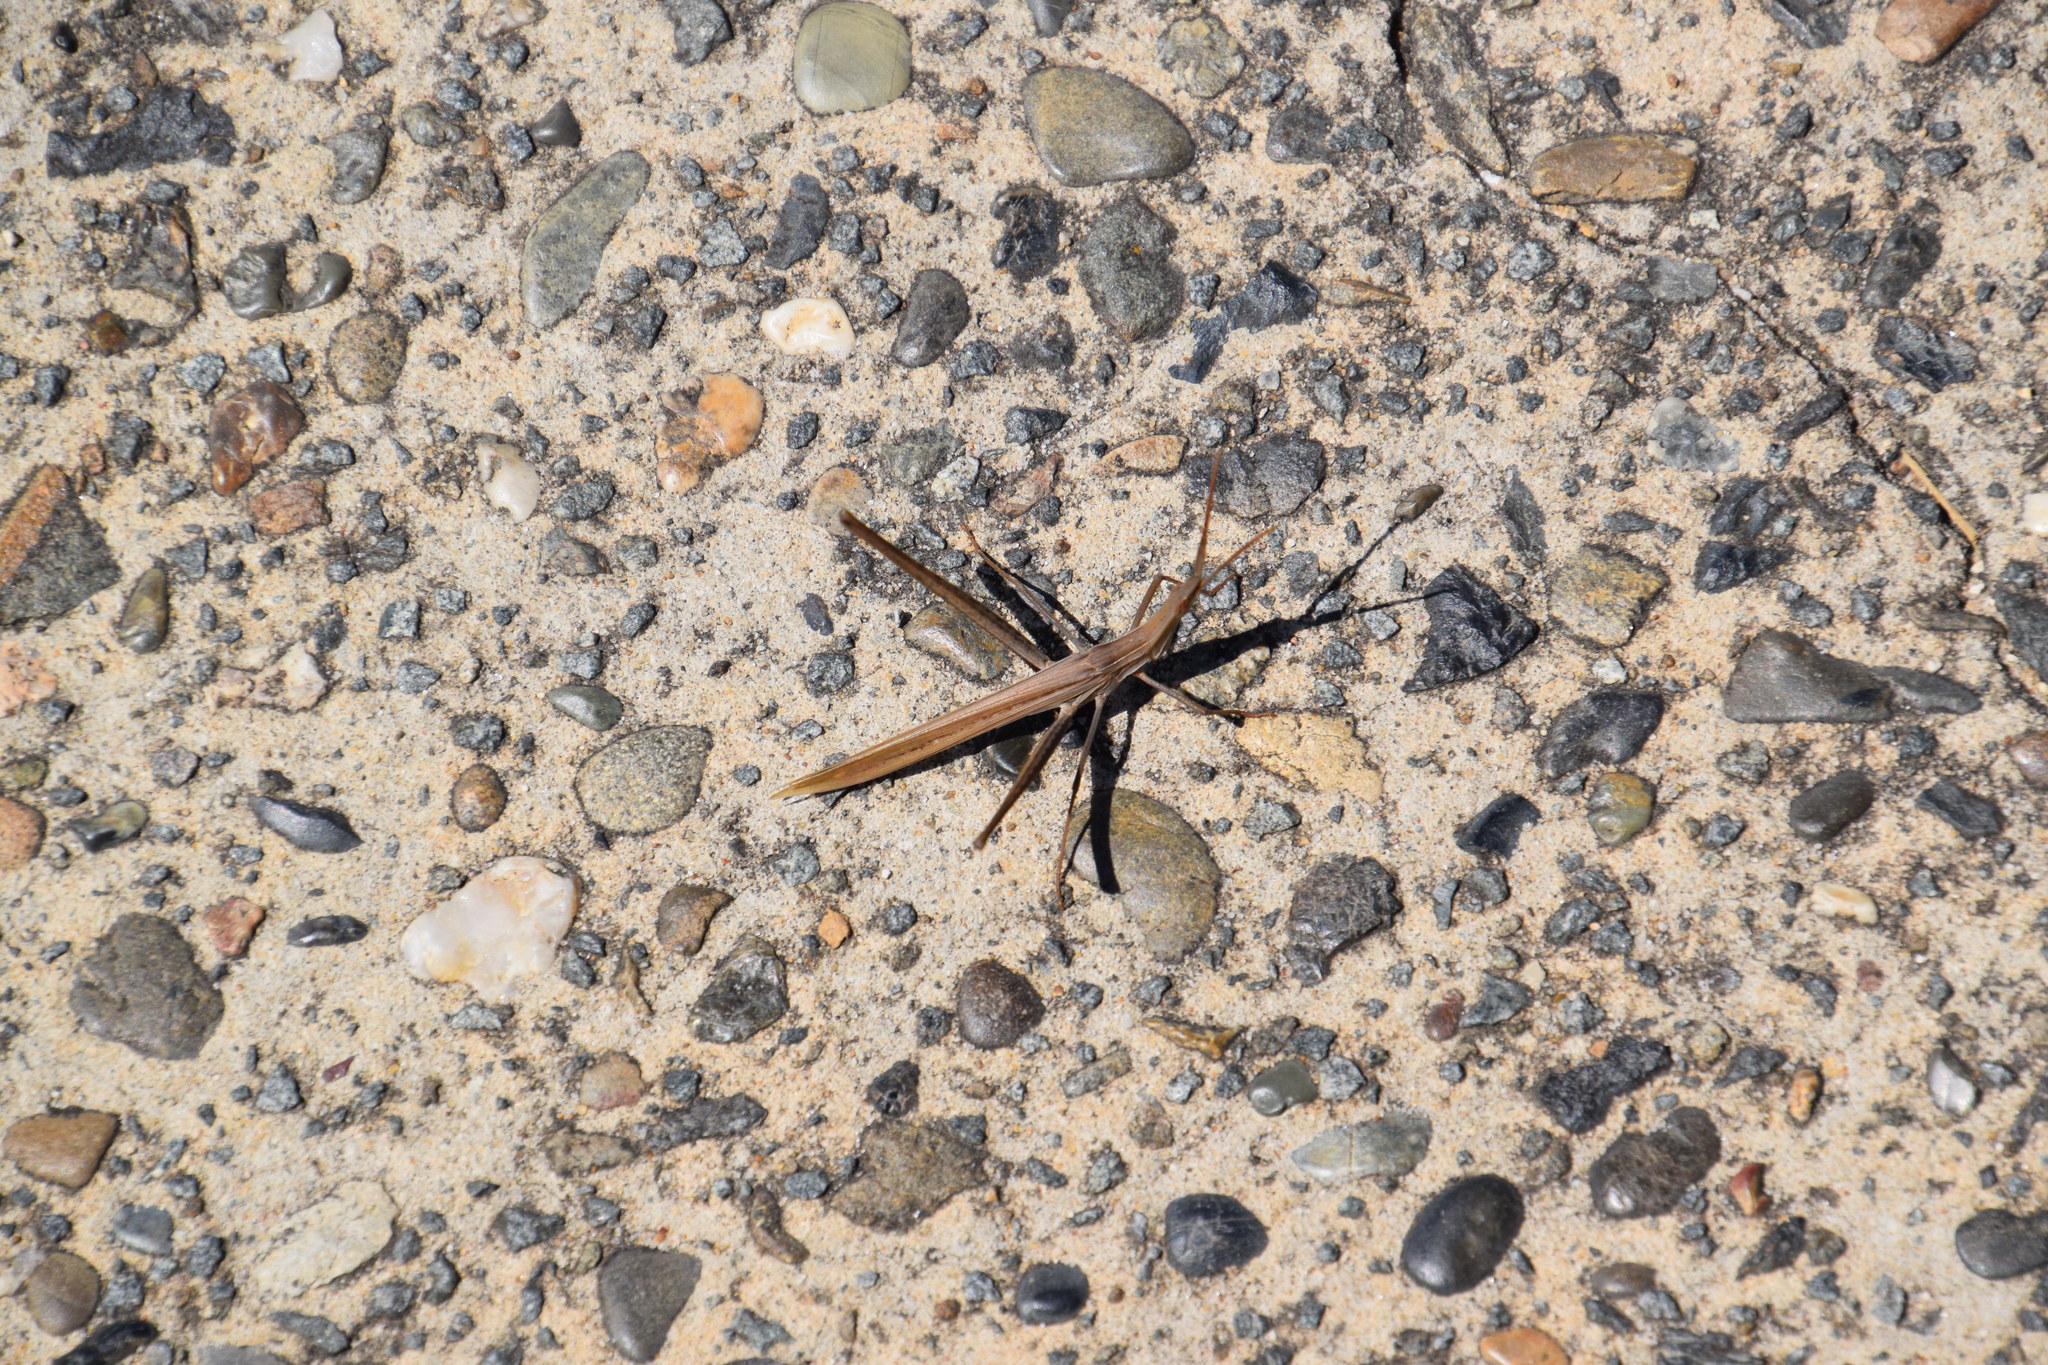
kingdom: Animalia
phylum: Arthropoda
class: Insecta
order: Orthoptera
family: Acrididae
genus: Acrida
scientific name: Acrida conica
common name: Giant green slantface
